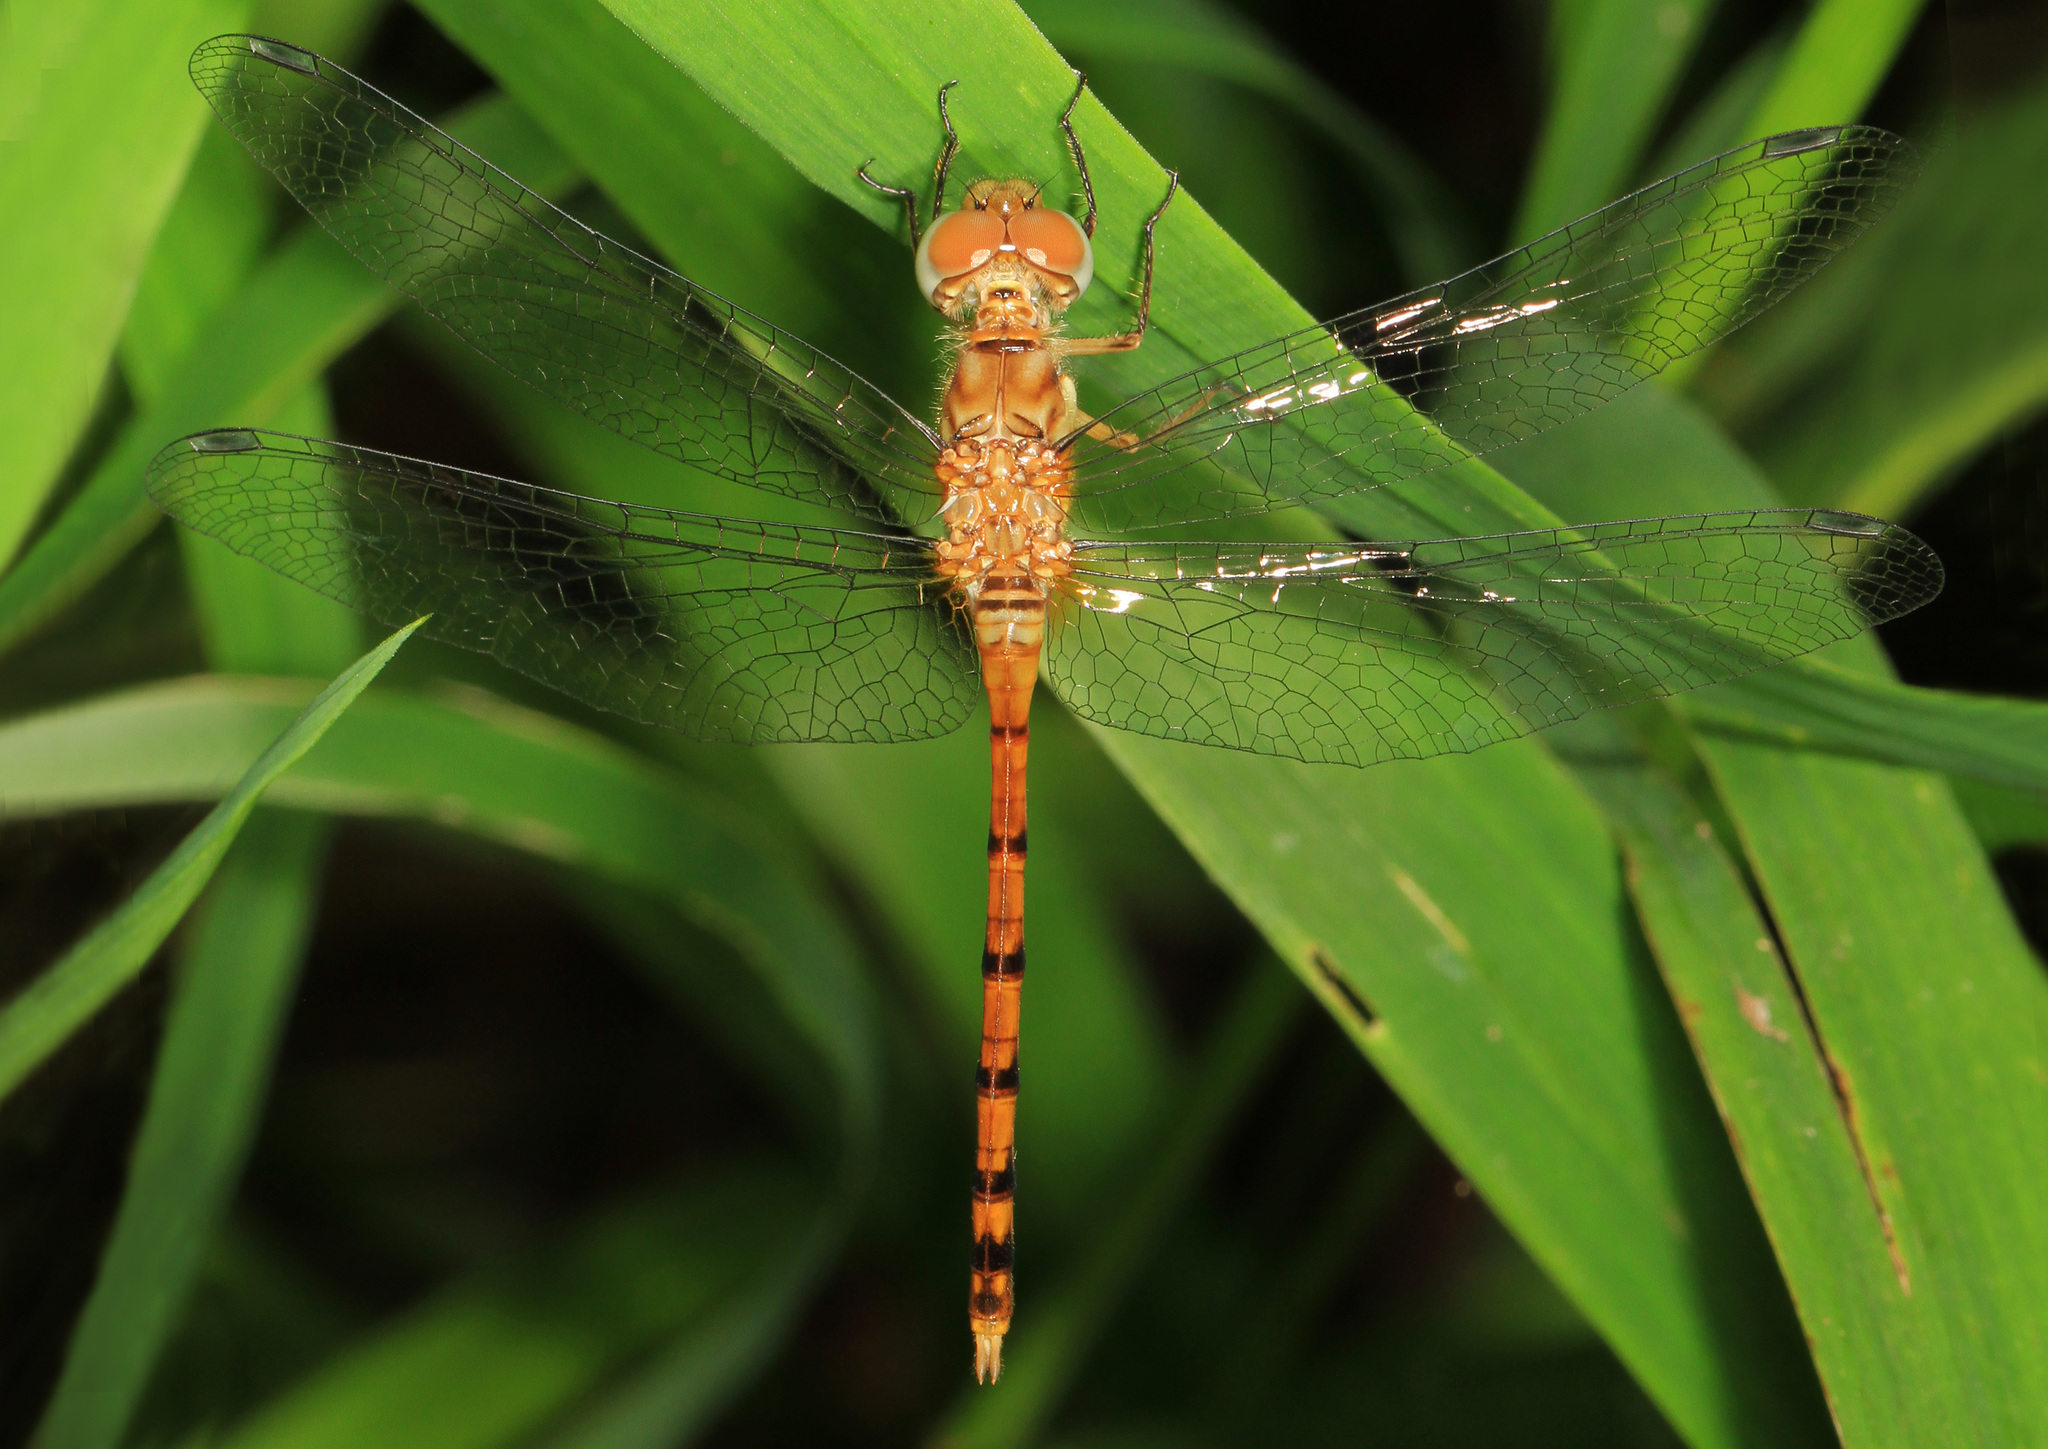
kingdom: Animalia
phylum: Arthropoda
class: Insecta
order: Odonata
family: Libellulidae
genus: Sympetrum
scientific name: Sympetrum ambiguum
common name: Blue-faced meadowhawk
